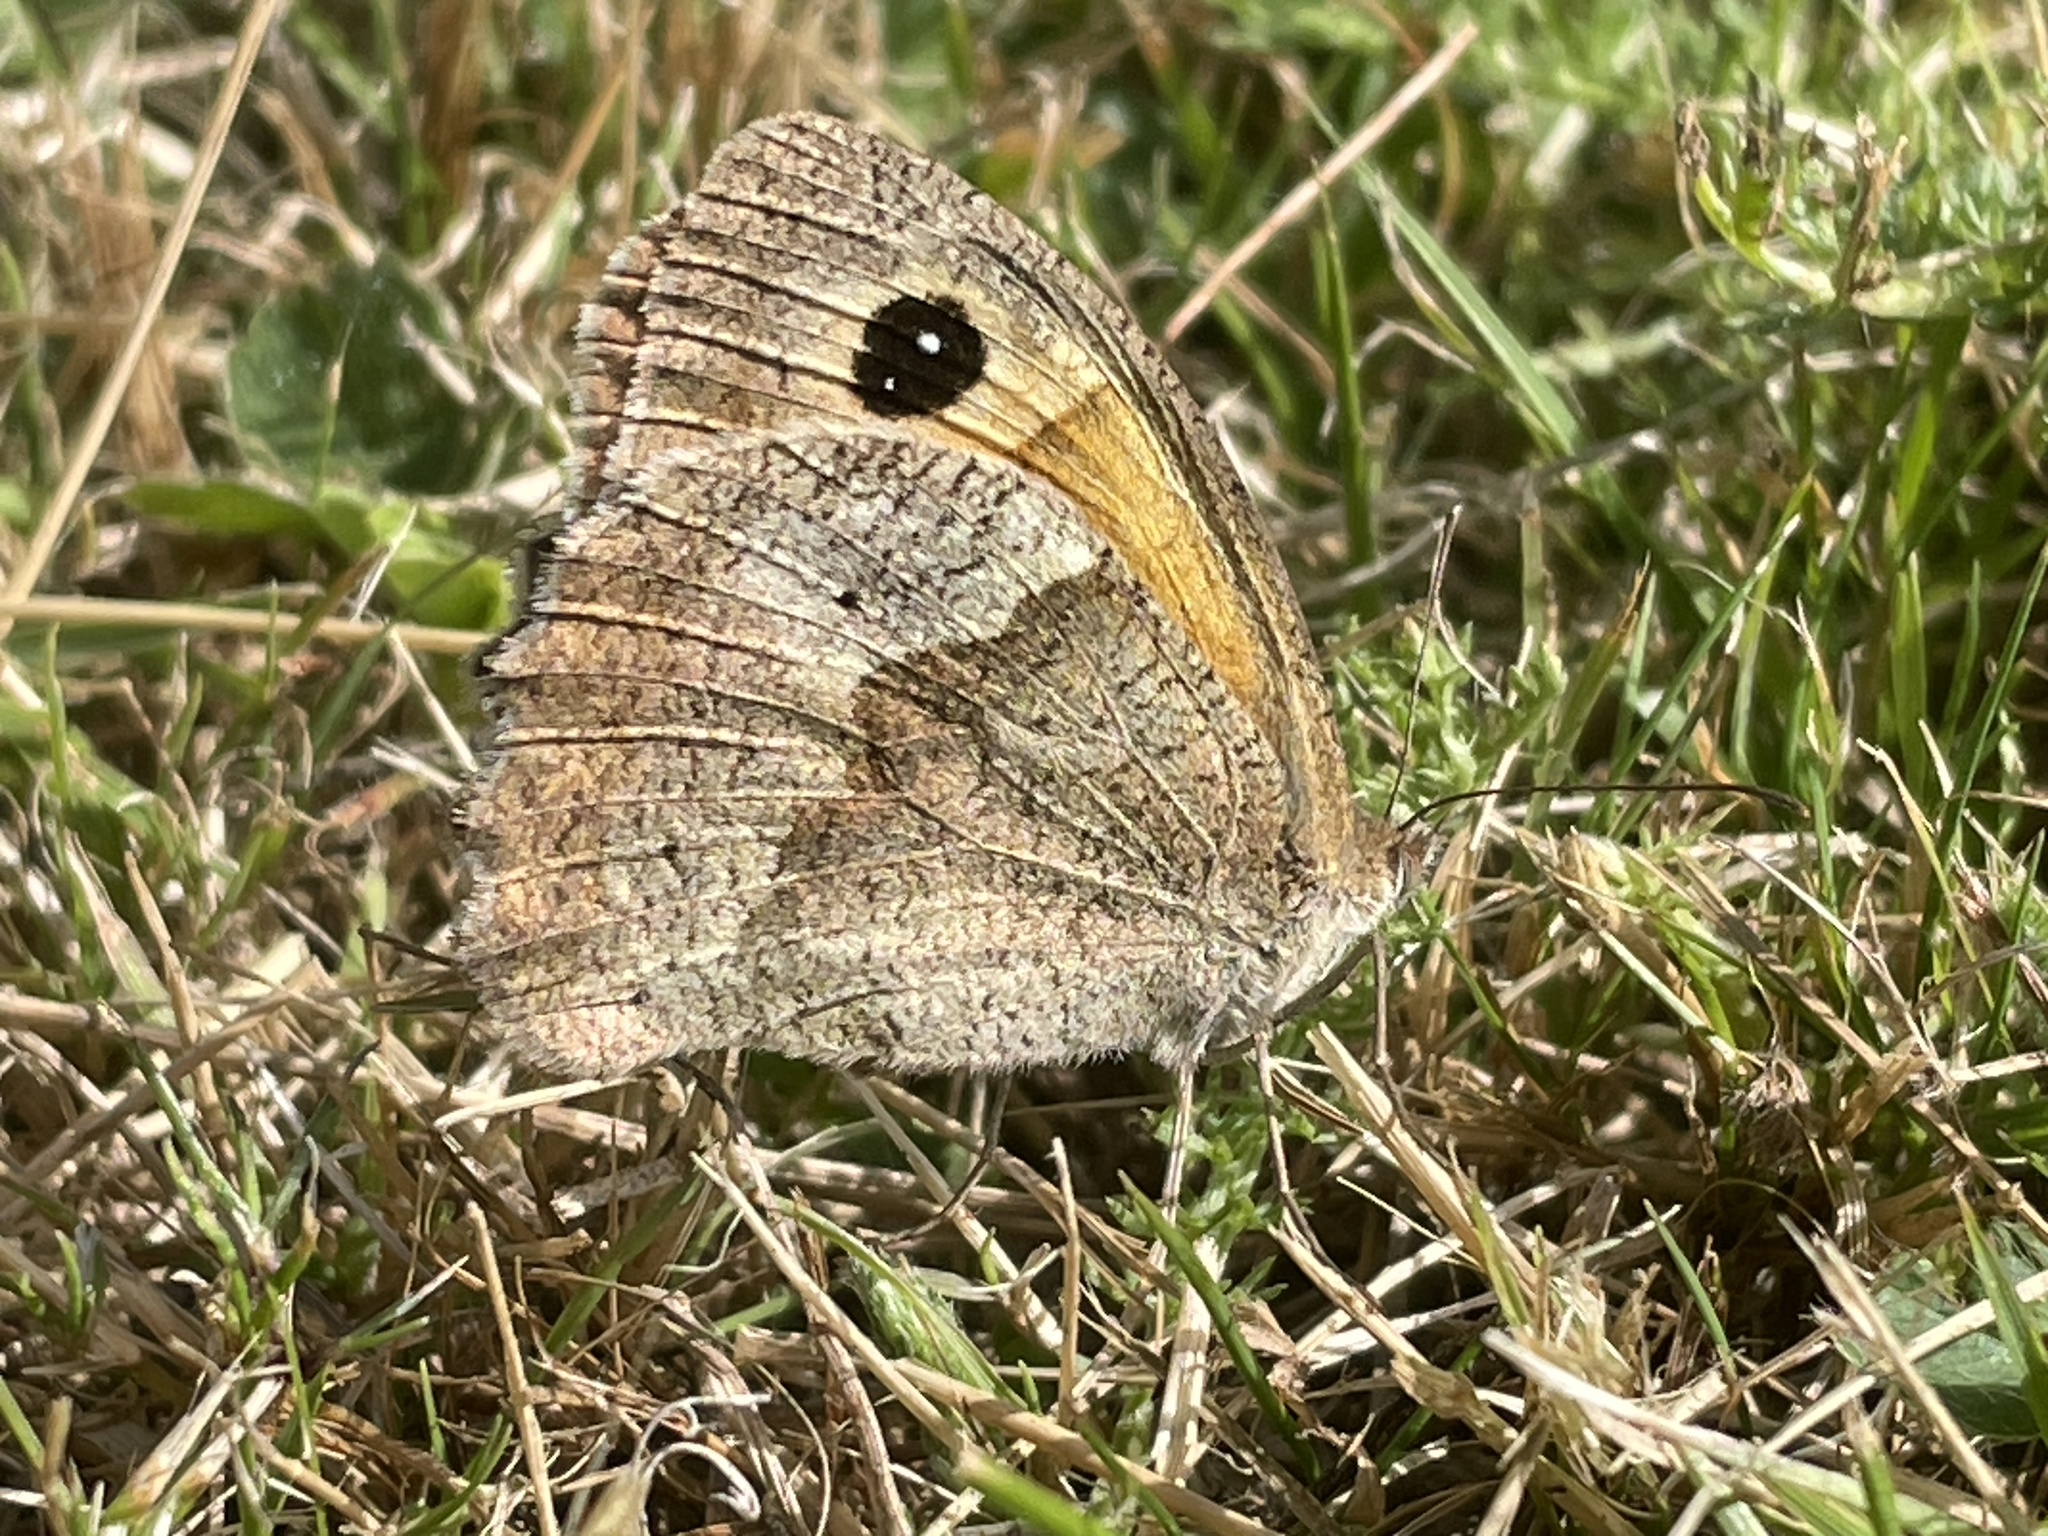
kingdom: Animalia
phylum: Arthropoda
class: Insecta
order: Lepidoptera
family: Nymphalidae
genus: Maniola
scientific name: Maniola jurtina
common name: Meadow brown
